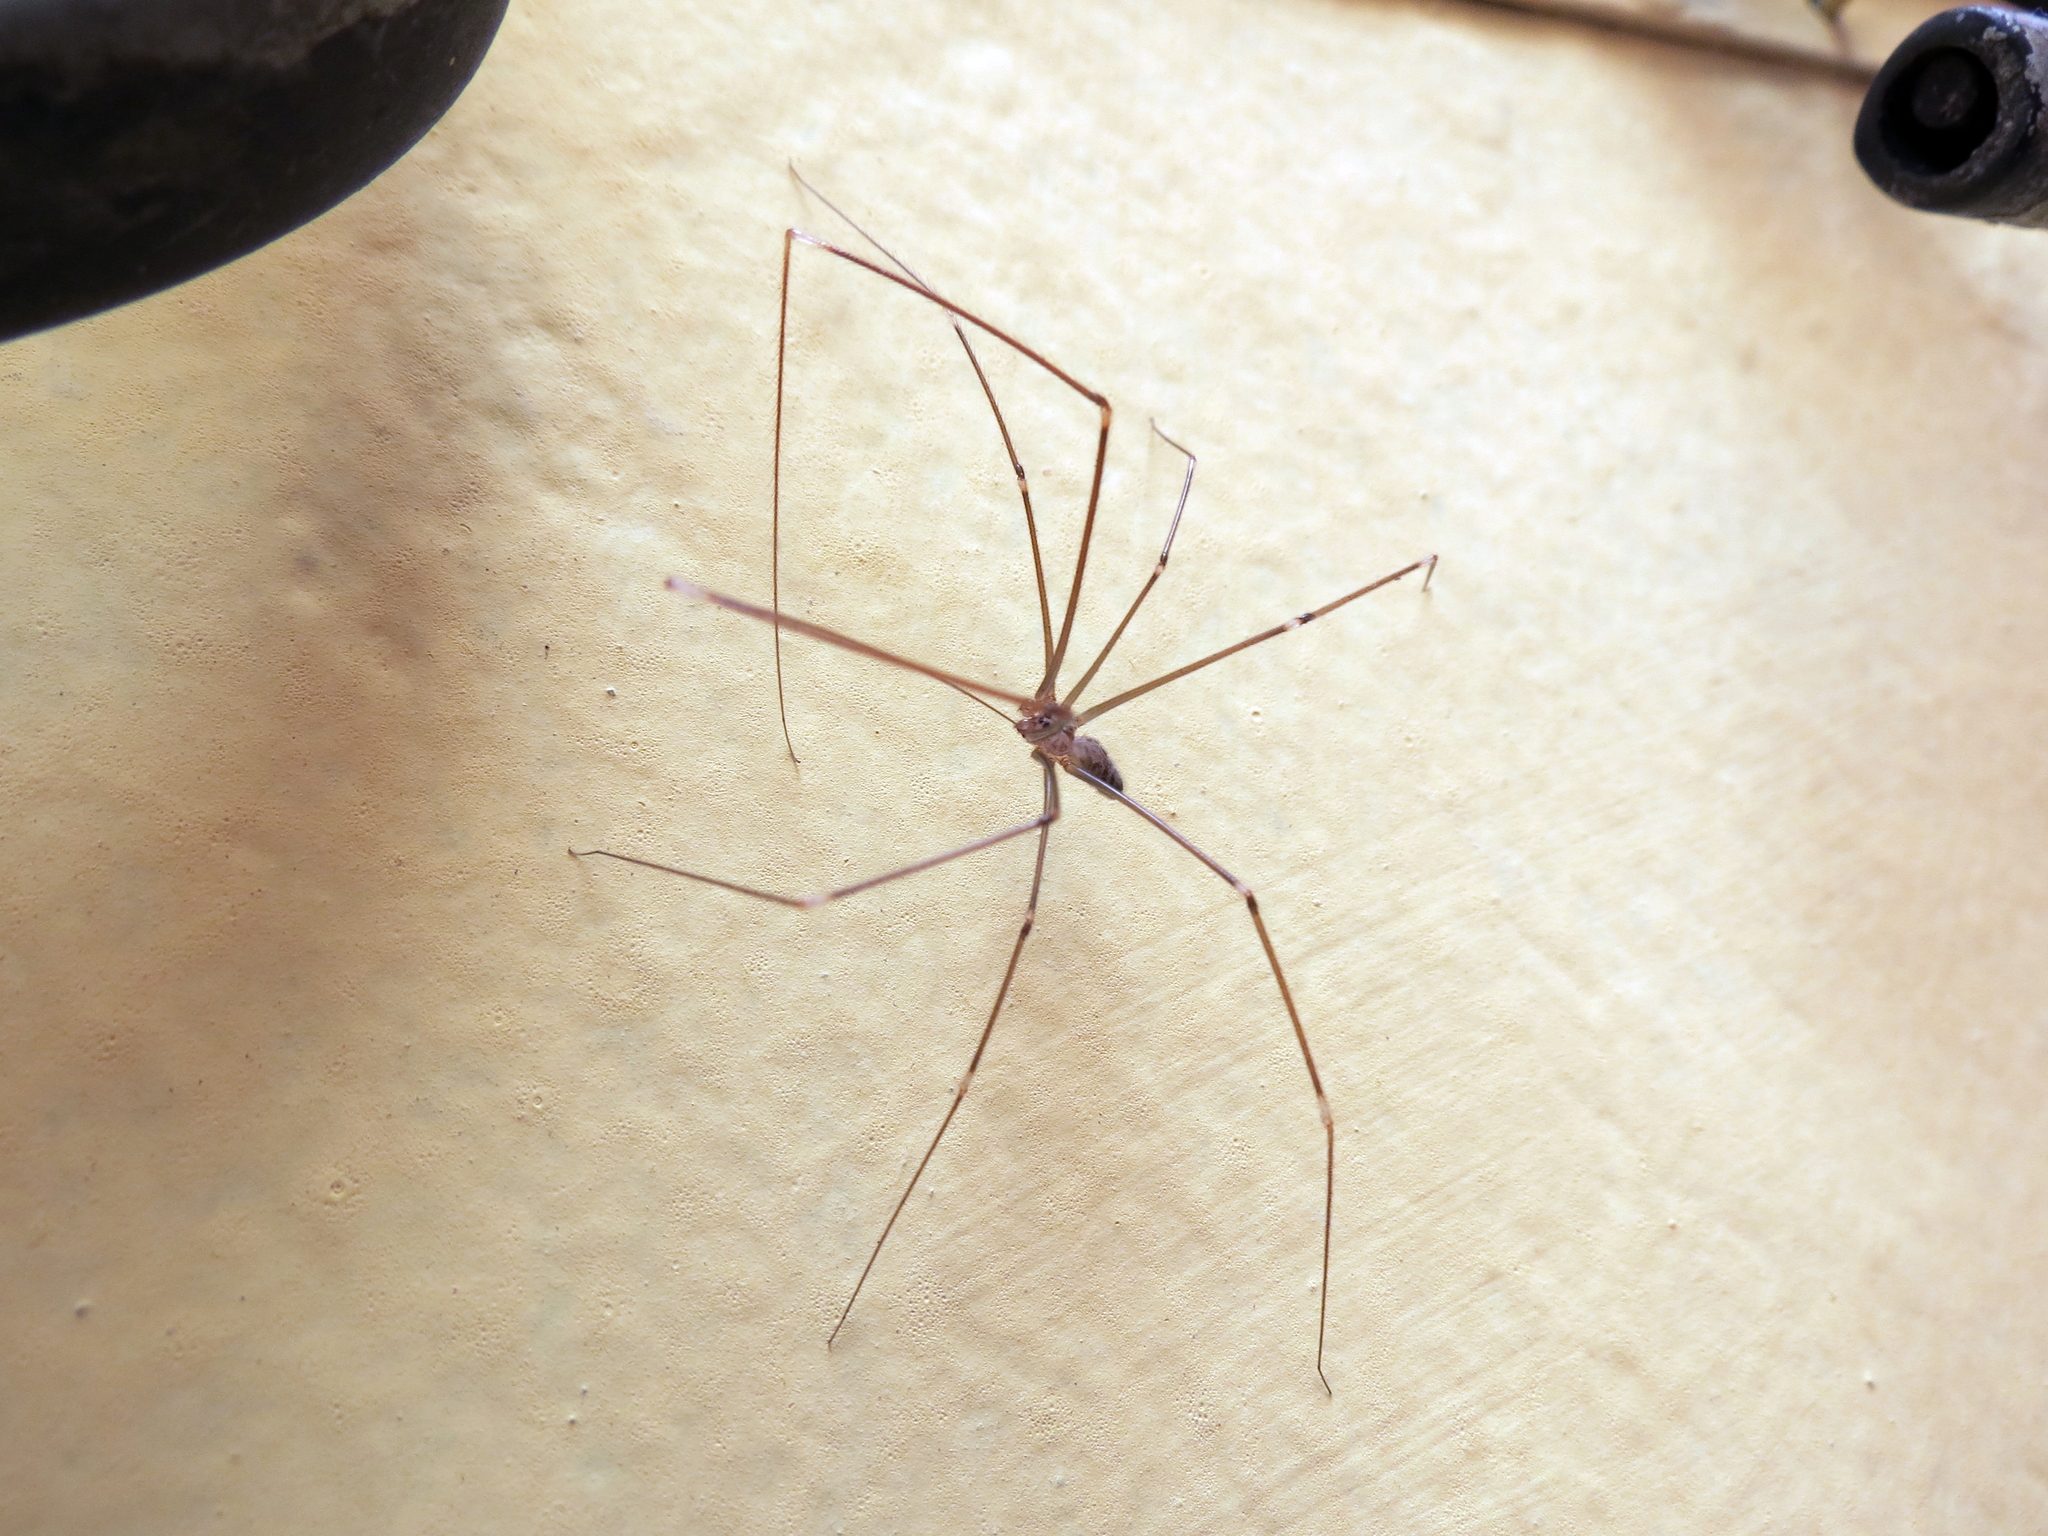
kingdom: Animalia
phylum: Arthropoda
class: Arachnida
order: Araneae
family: Pholcidae
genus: Pholcus
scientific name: Pholcus phalangioides
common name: Longbodied cellar spider
